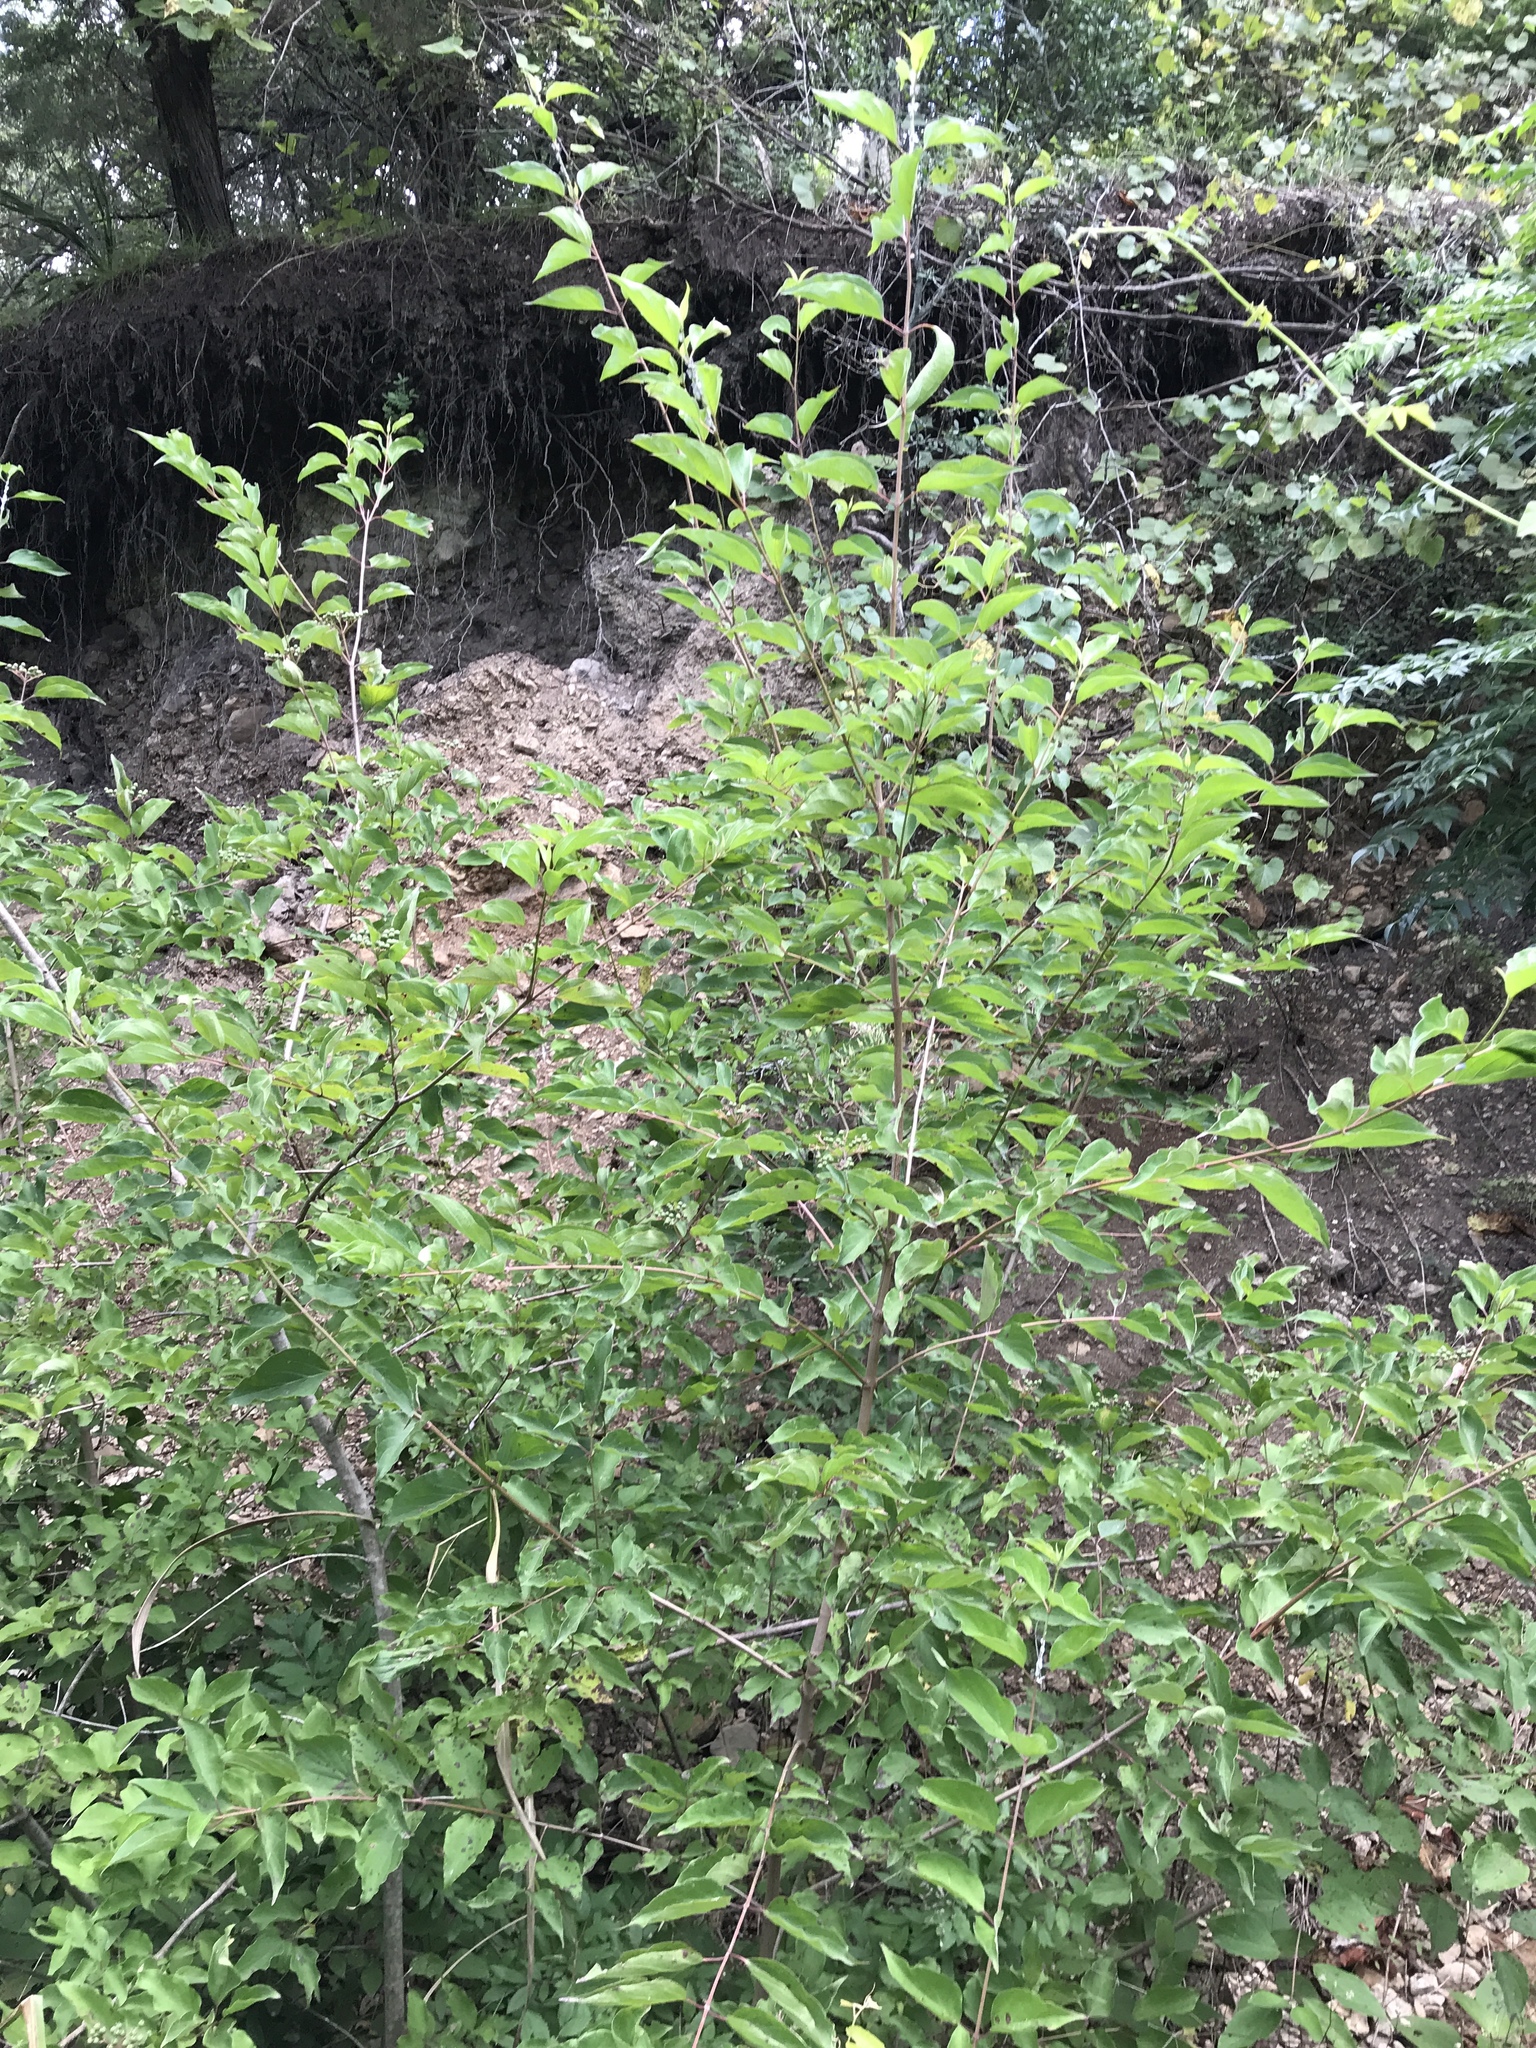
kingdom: Plantae
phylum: Tracheophyta
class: Magnoliopsida
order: Cornales
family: Cornaceae
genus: Cornus
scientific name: Cornus drummondii
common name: Rough-leaf dogwood
